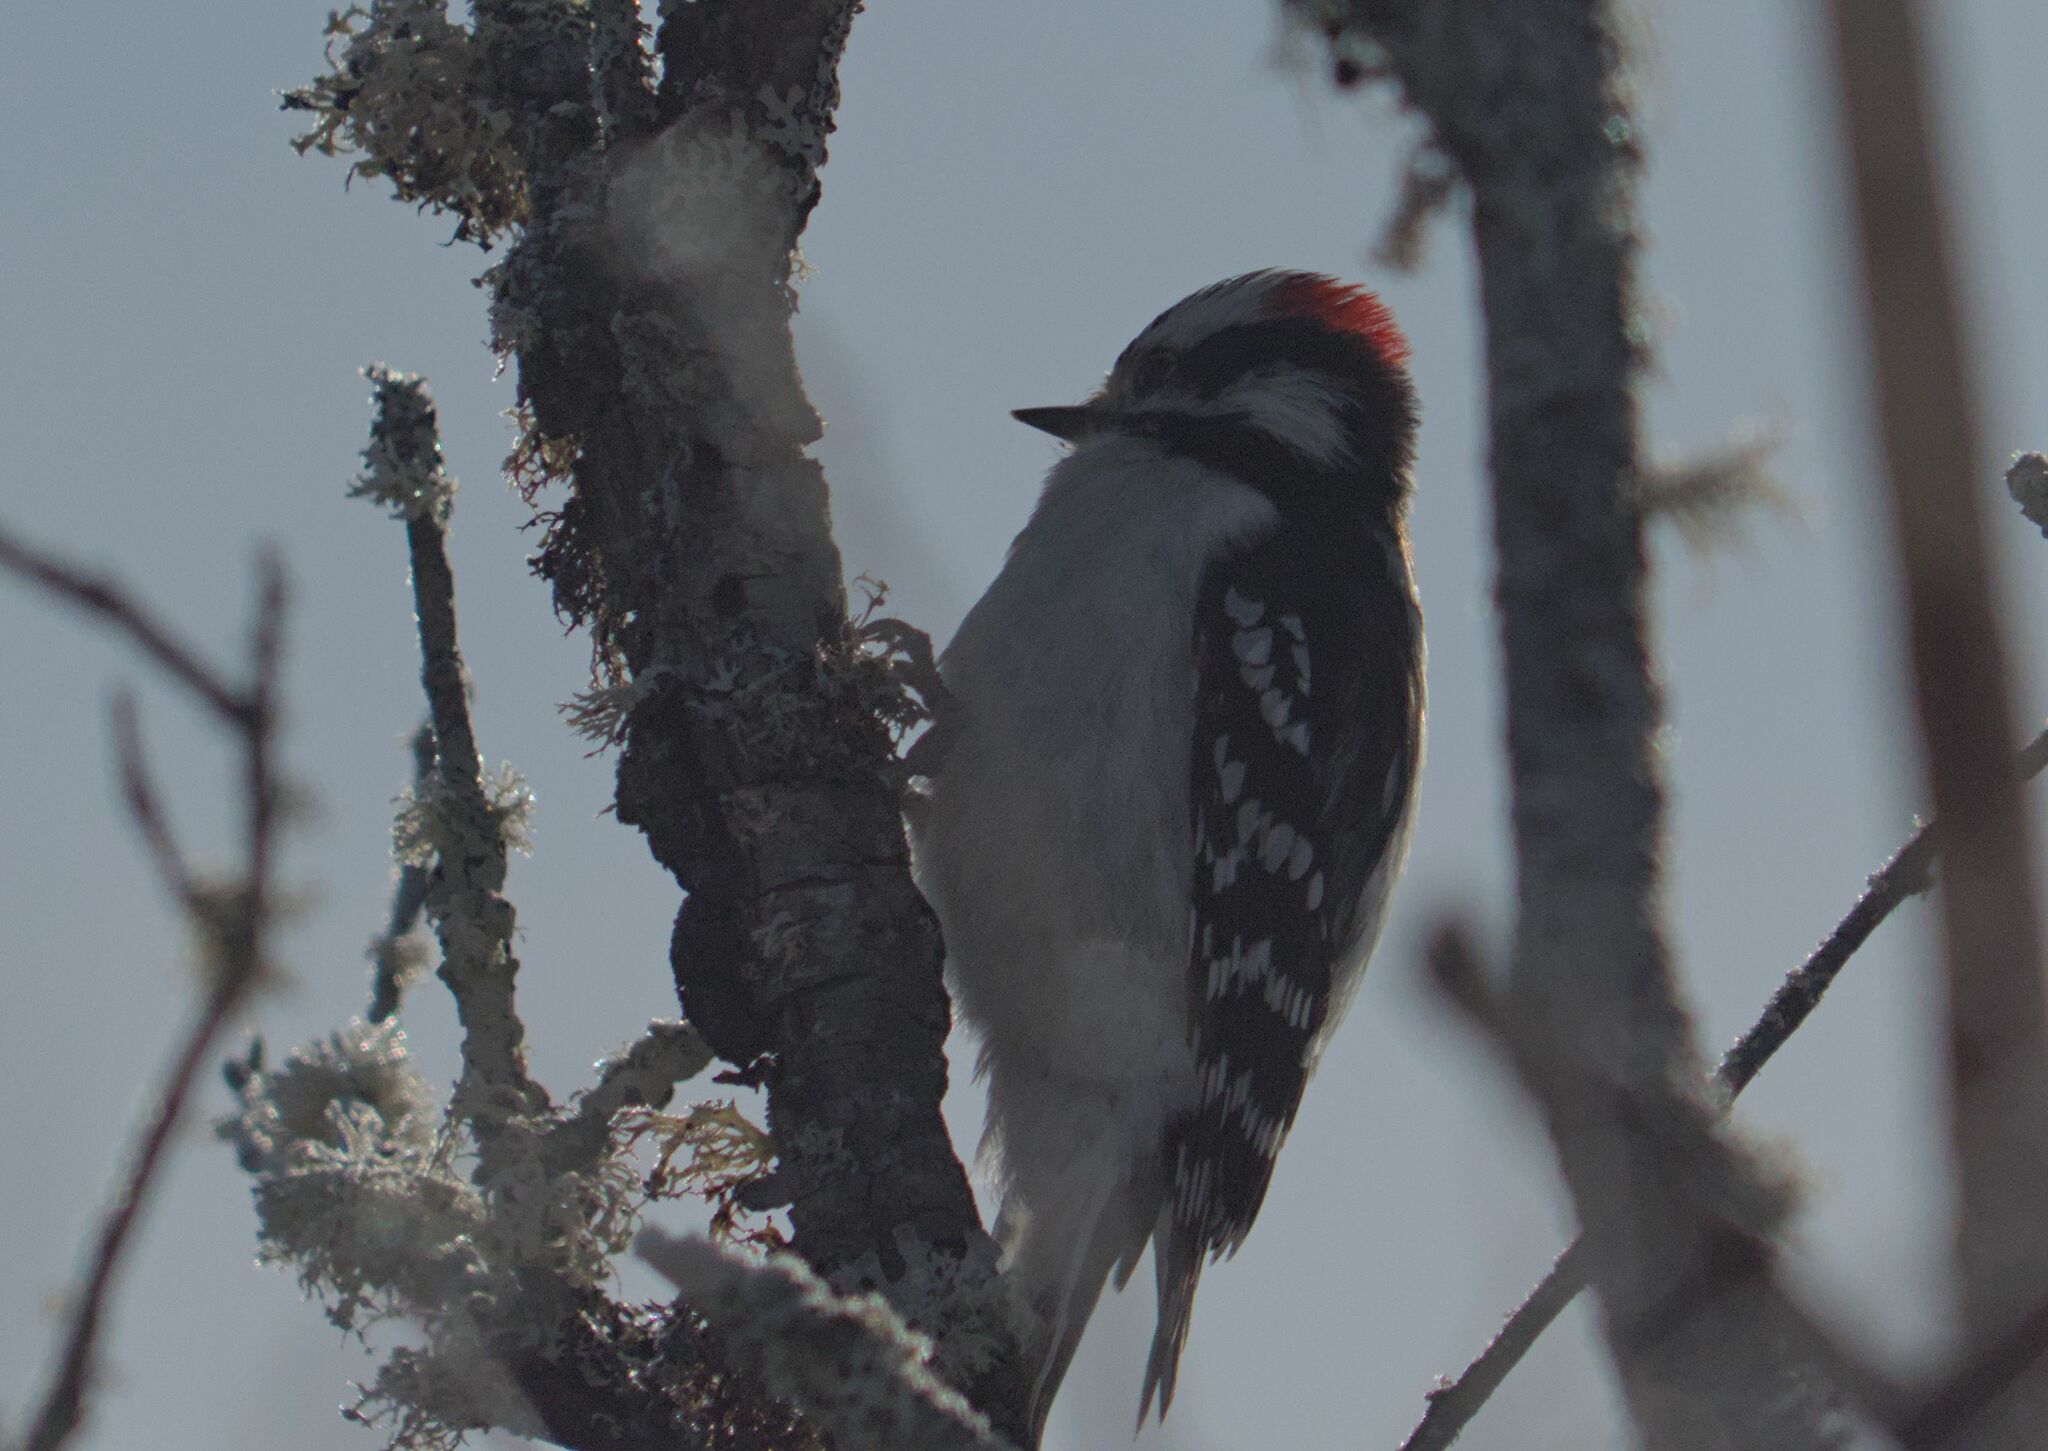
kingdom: Animalia
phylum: Chordata
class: Aves
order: Piciformes
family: Picidae
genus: Dryobates
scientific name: Dryobates pubescens
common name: Downy woodpecker
